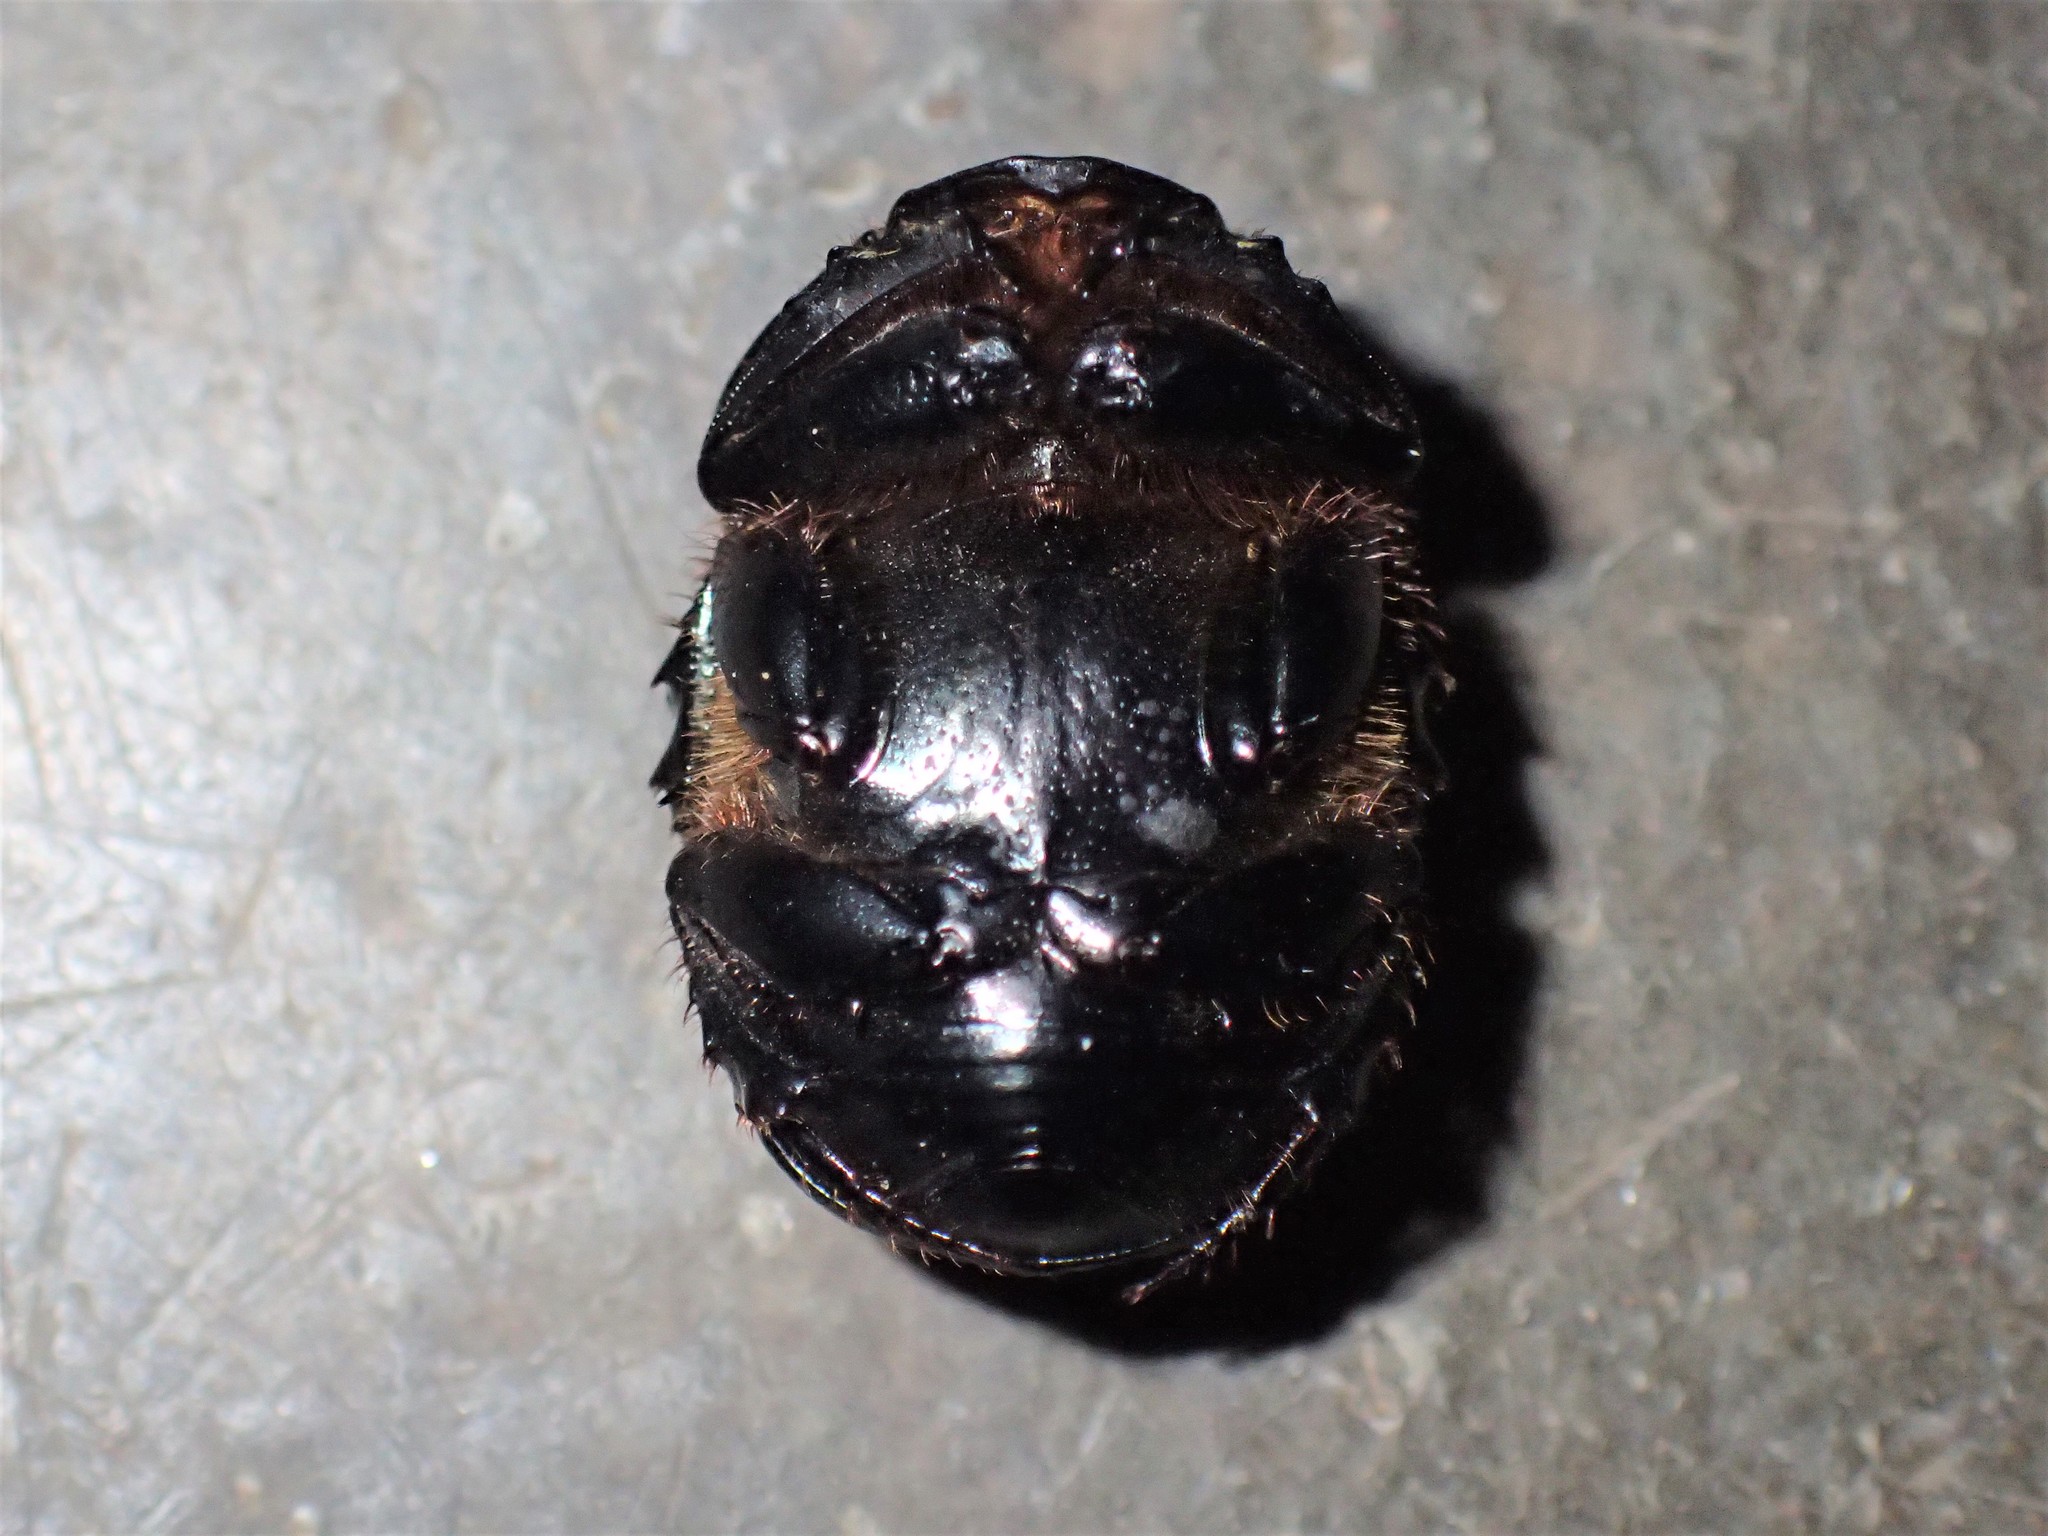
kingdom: Animalia
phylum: Arthropoda
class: Insecta
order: Coleoptera
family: Scarabaeidae
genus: Onitis
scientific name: Onitis caffer
